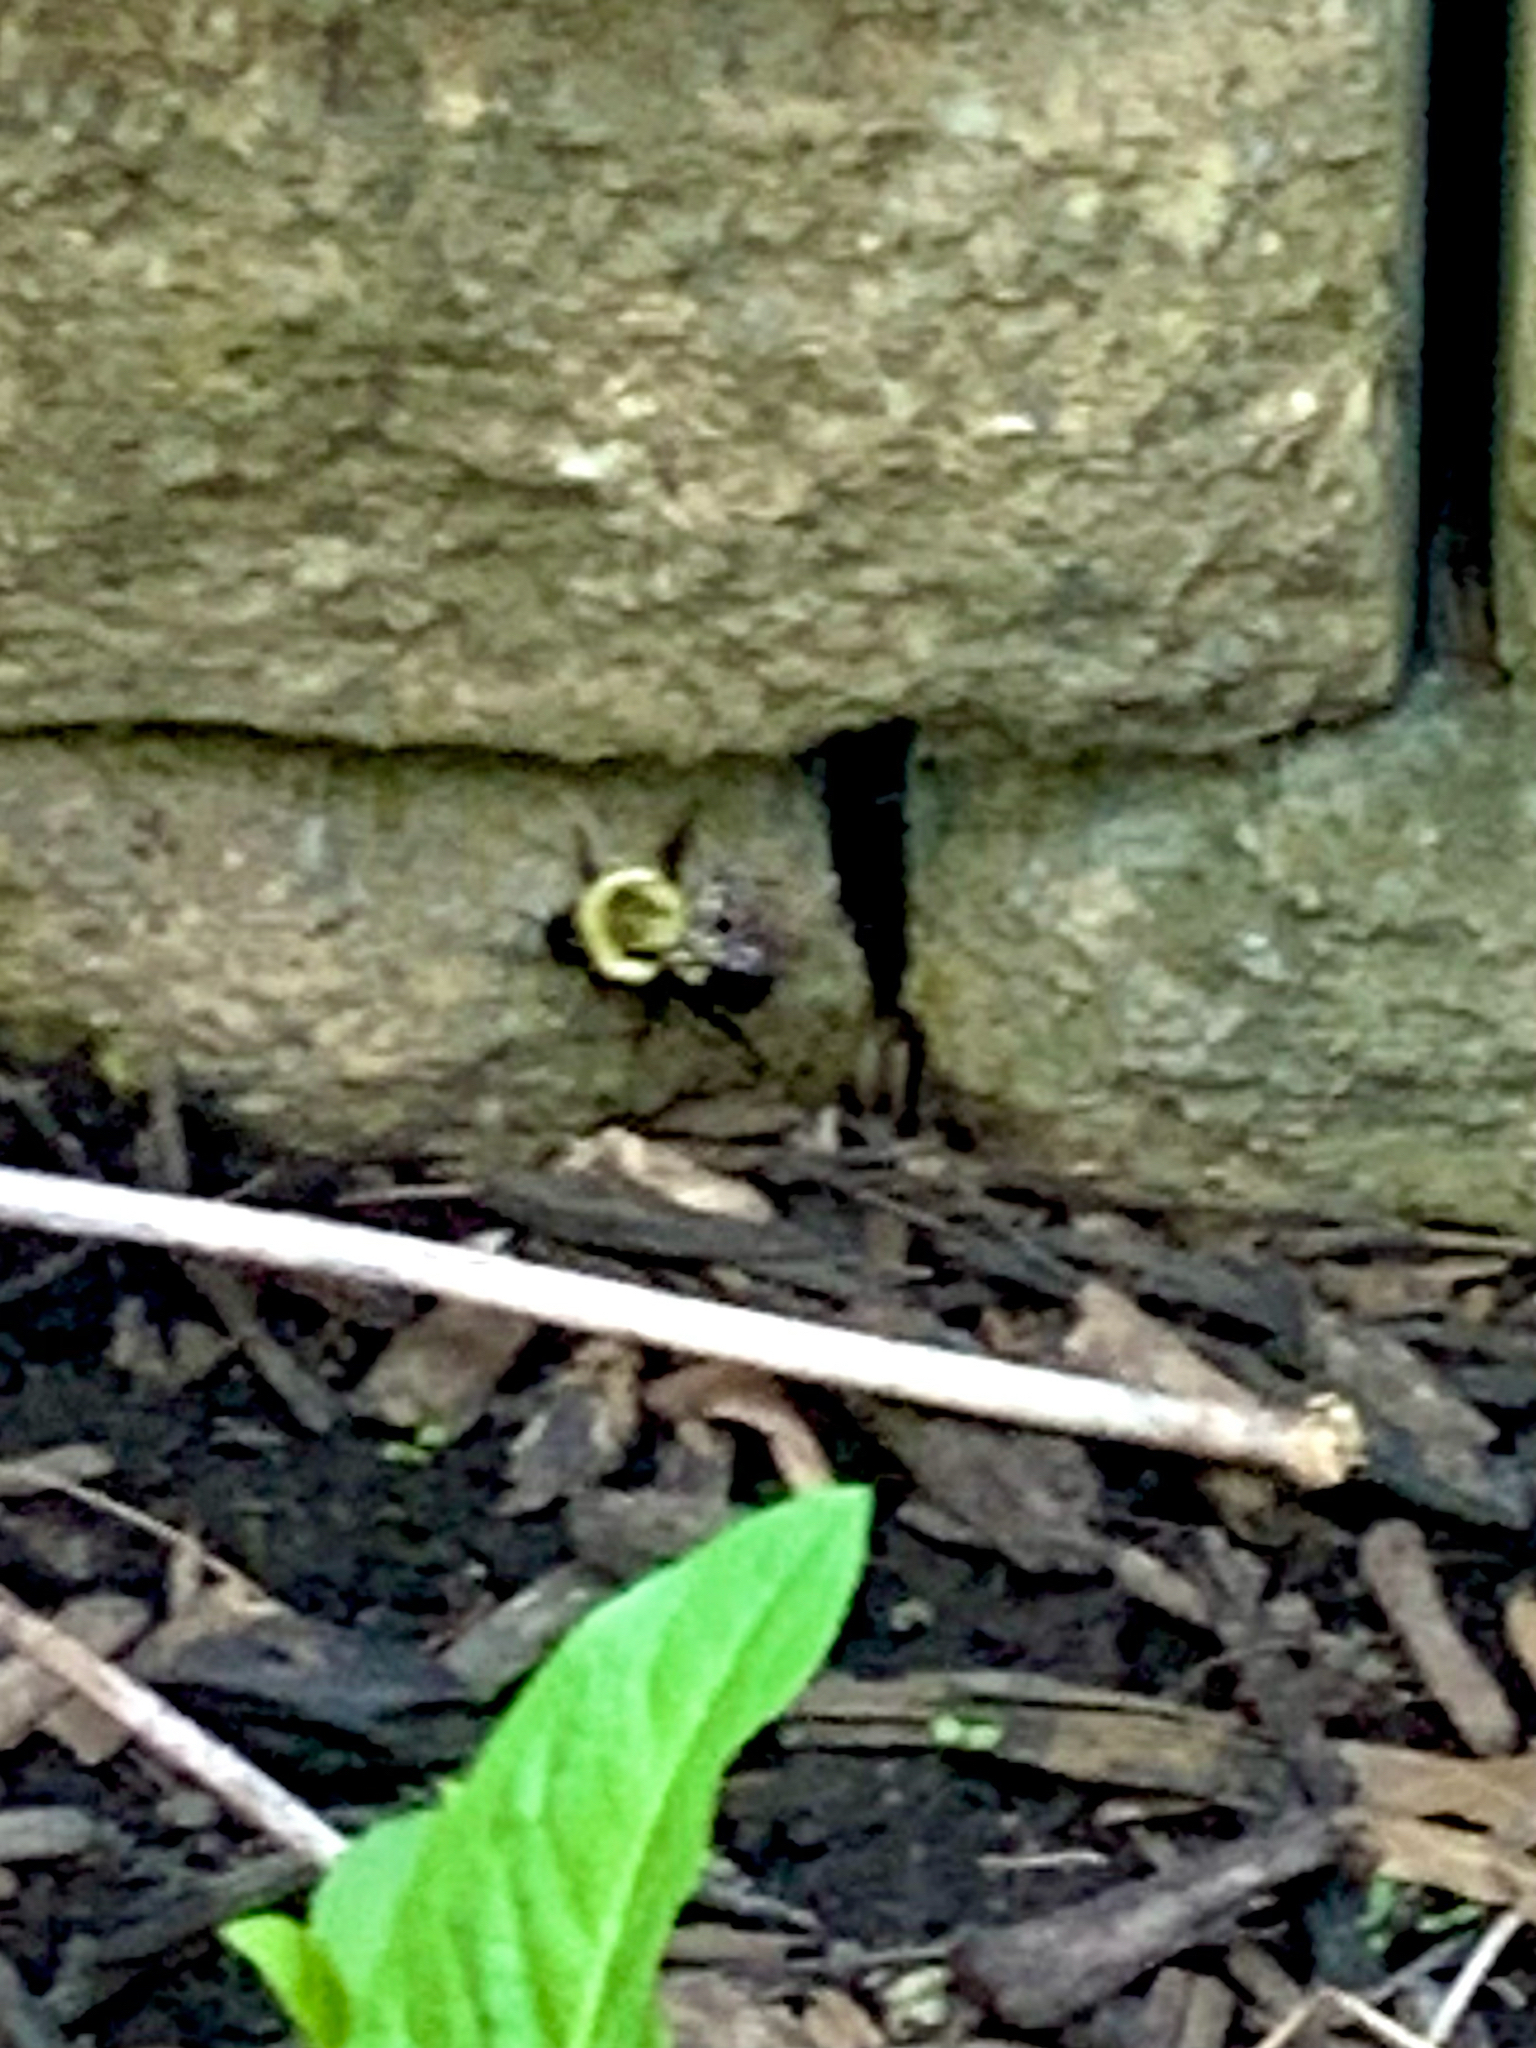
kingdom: Animalia
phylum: Arthropoda
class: Insecta
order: Hymenoptera
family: Apidae
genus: Bombus
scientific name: Bombus impatiens
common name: Common eastern bumble bee
